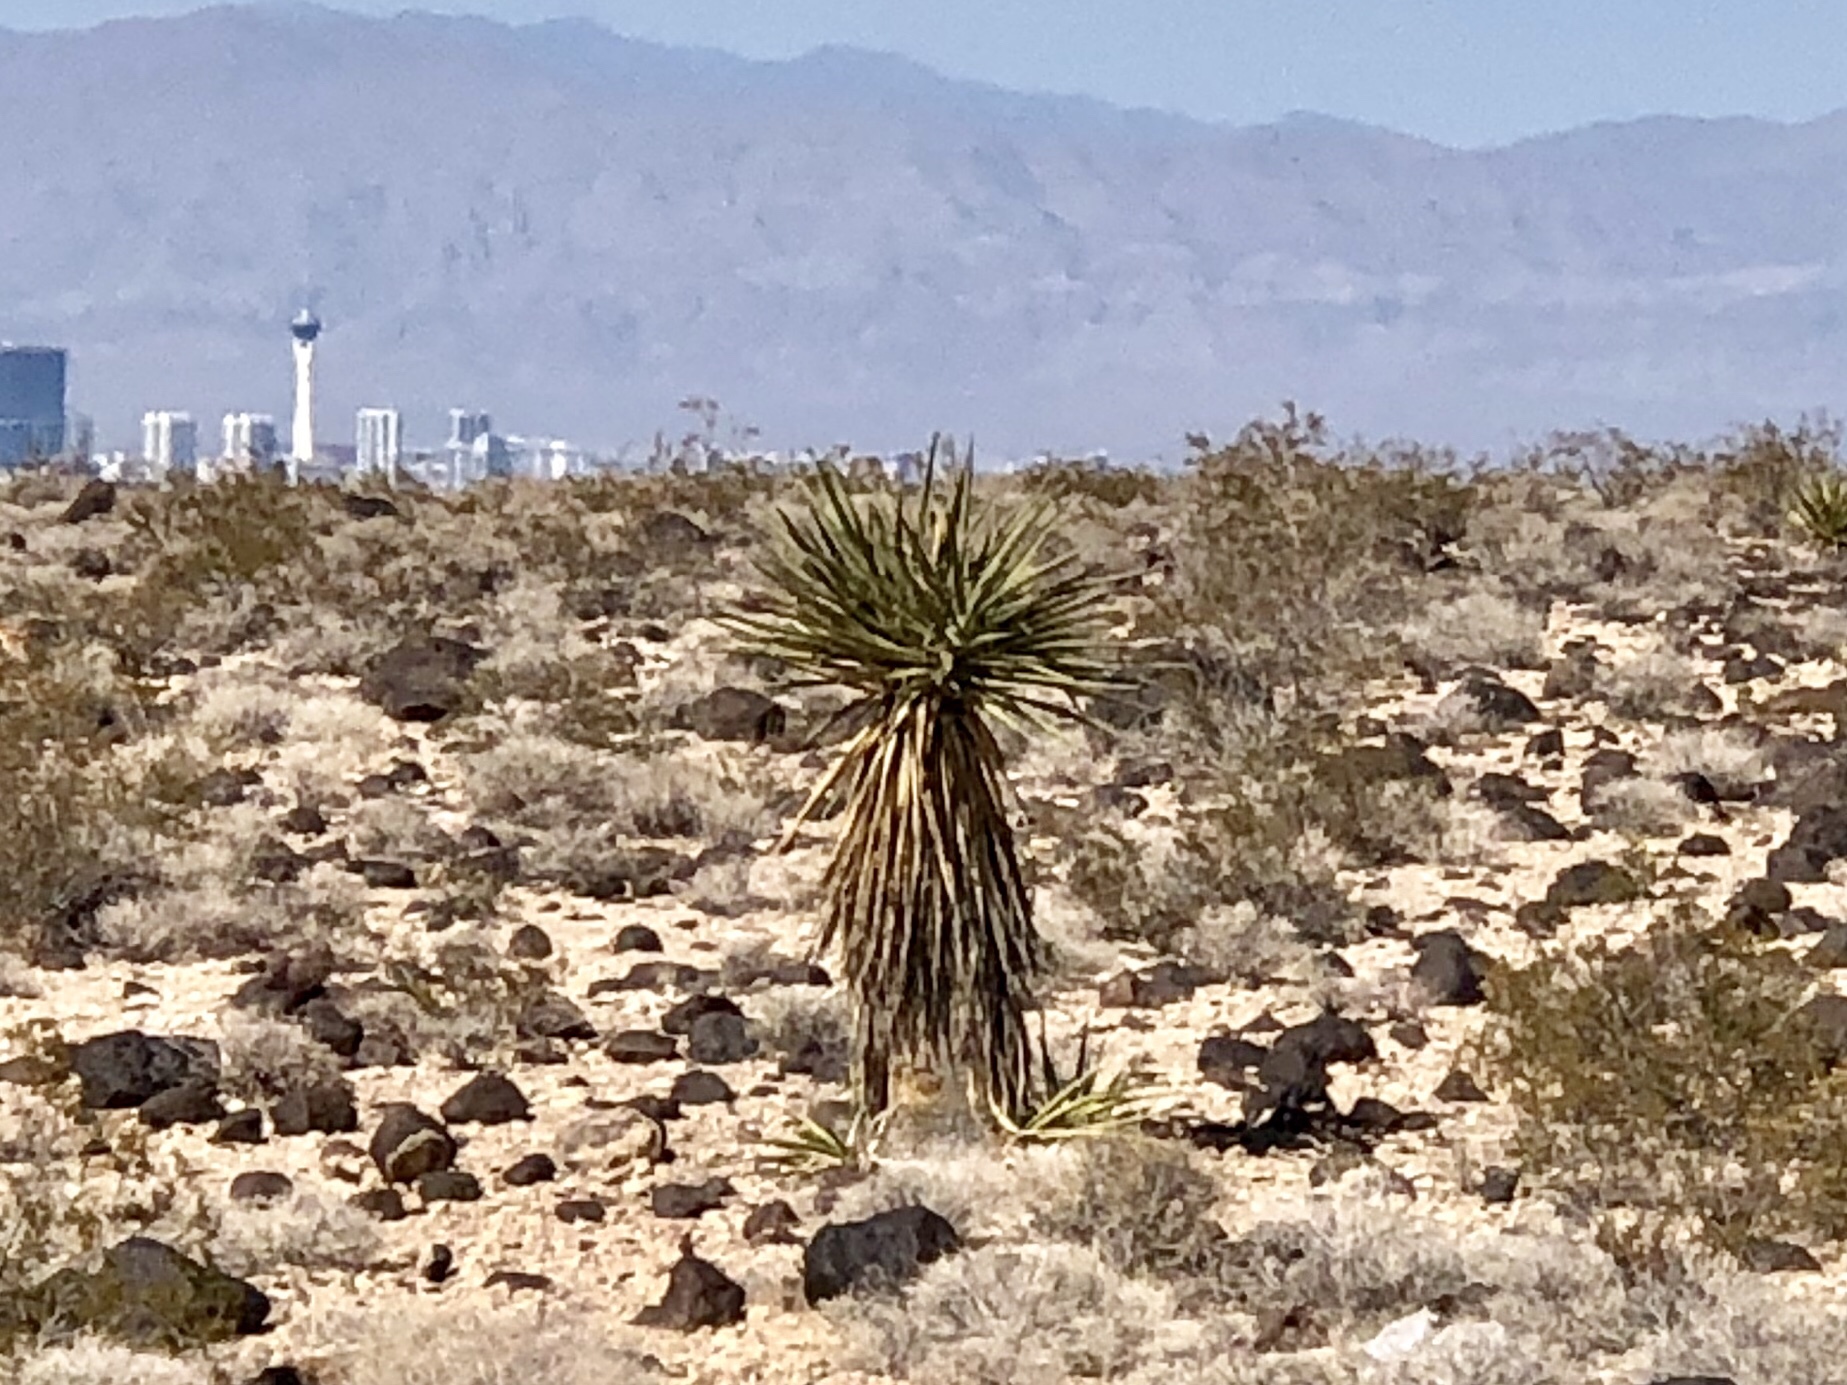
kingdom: Plantae
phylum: Tracheophyta
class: Liliopsida
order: Asparagales
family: Asparagaceae
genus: Yucca
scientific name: Yucca schidigera
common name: Mojave yucca
